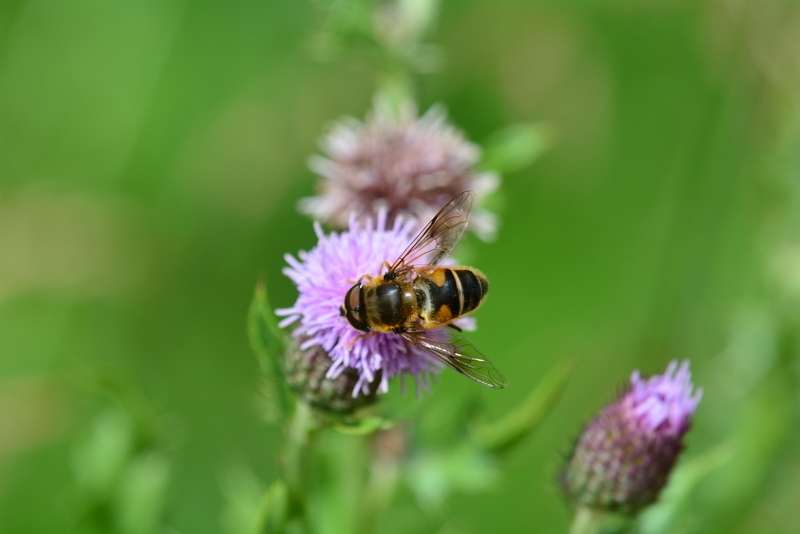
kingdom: Animalia
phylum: Arthropoda
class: Insecta
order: Diptera
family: Syrphidae
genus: Eristalis
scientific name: Eristalis pertinax
